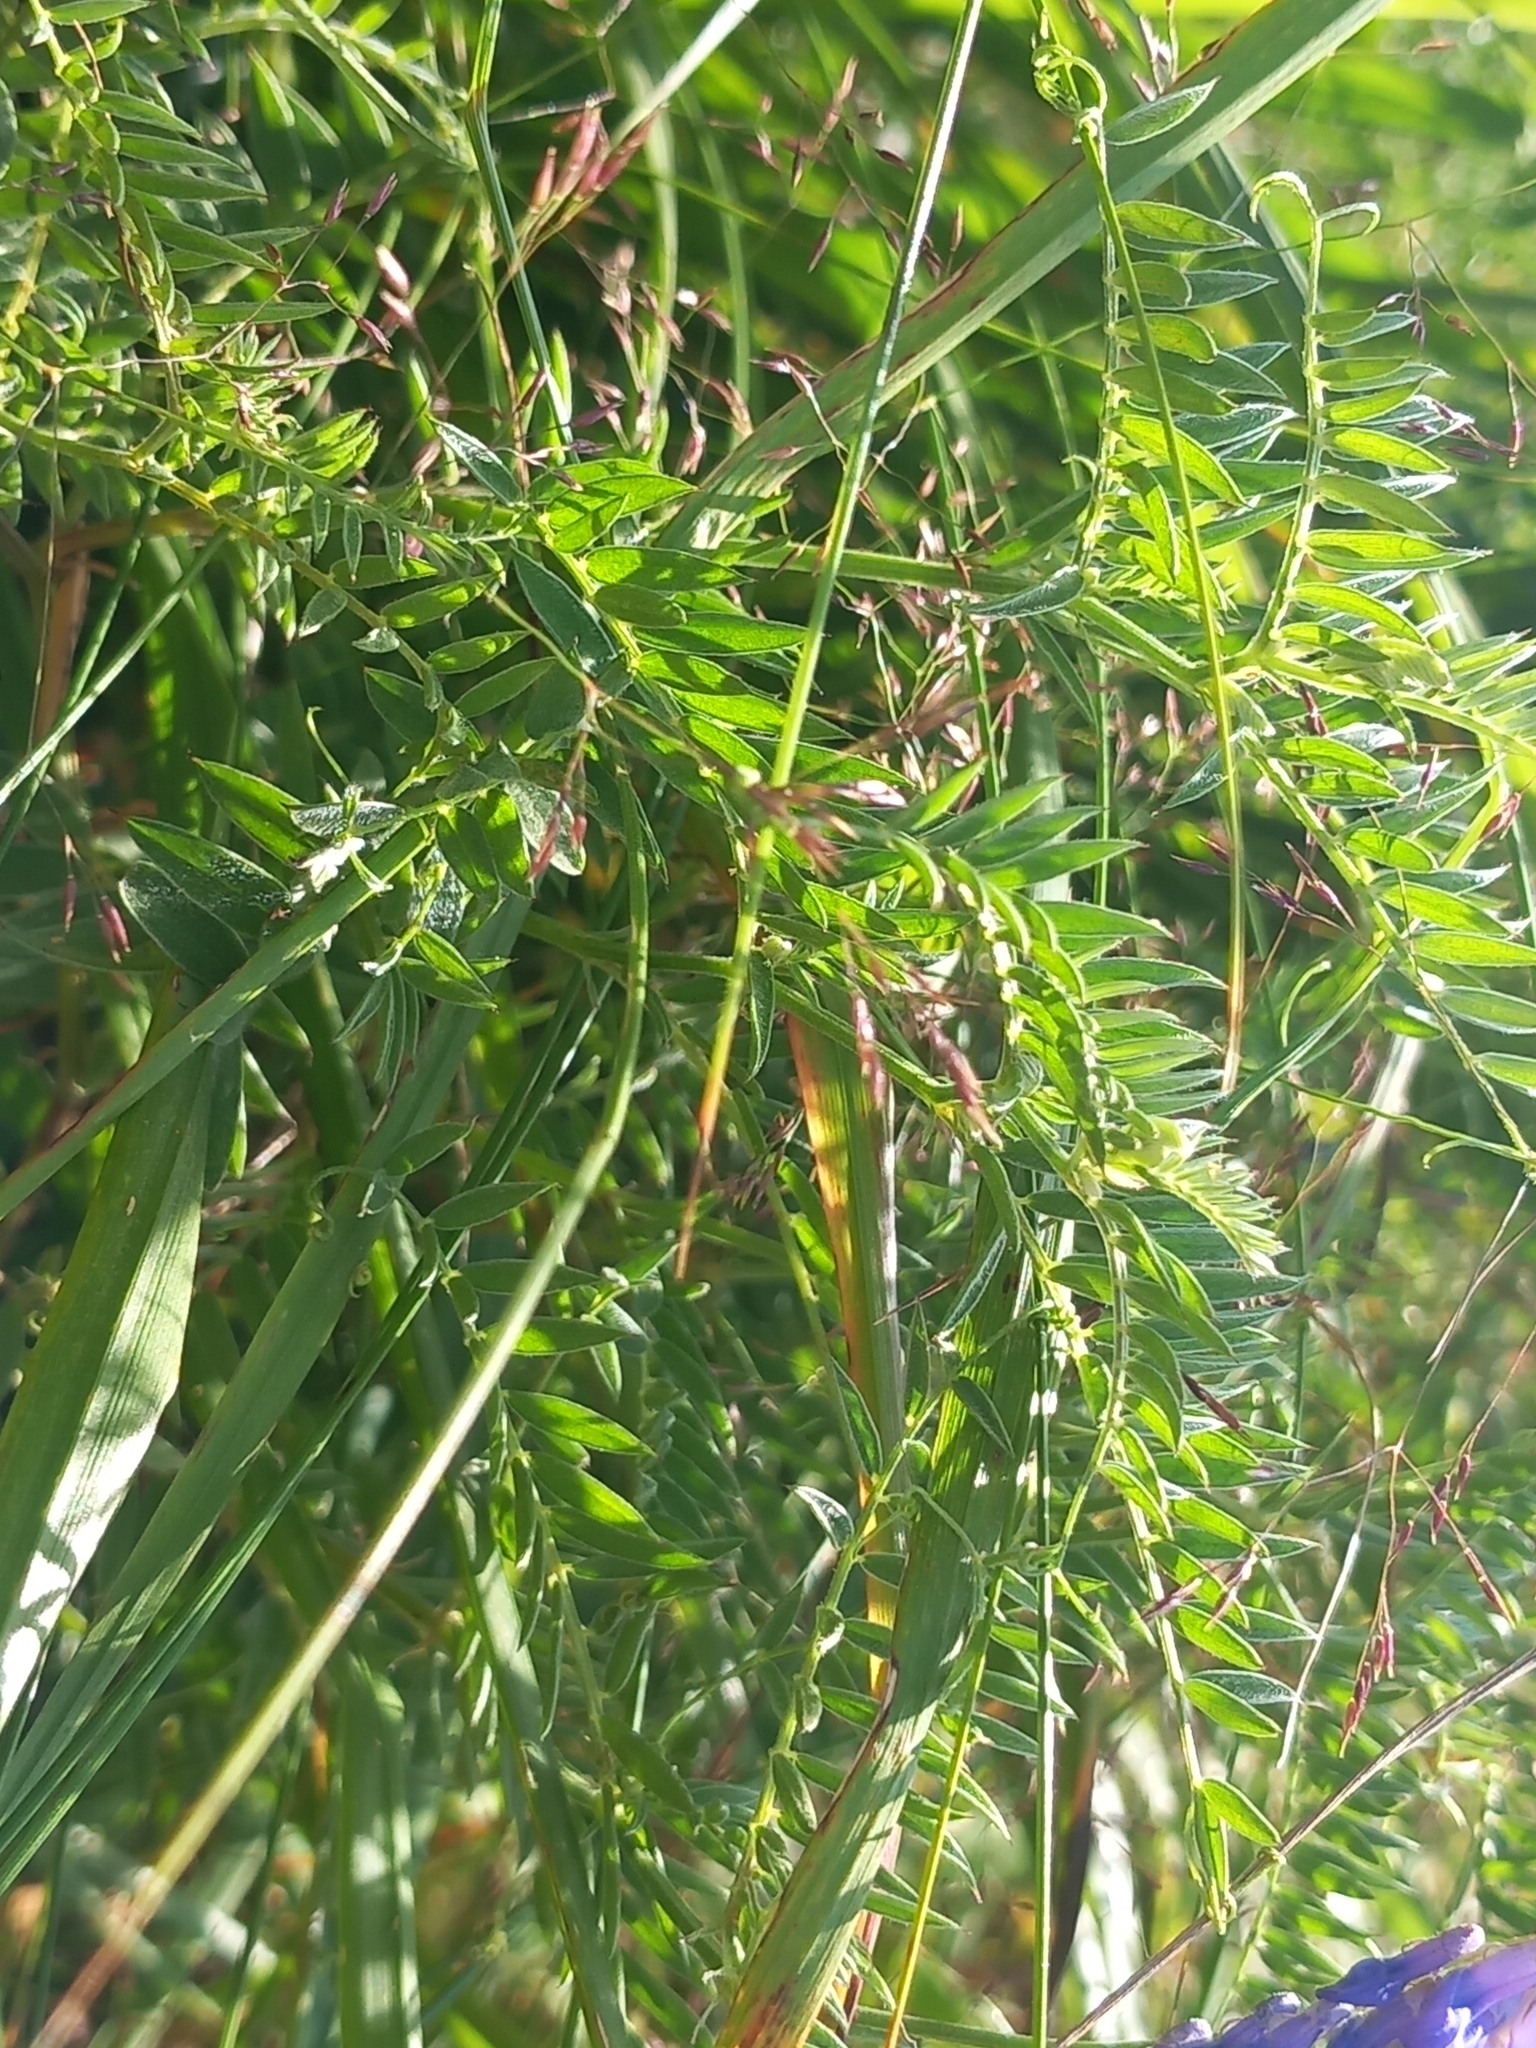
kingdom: Plantae
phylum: Tracheophyta
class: Magnoliopsida
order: Fabales
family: Fabaceae
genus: Vicia
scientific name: Vicia cracca
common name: Bird vetch
